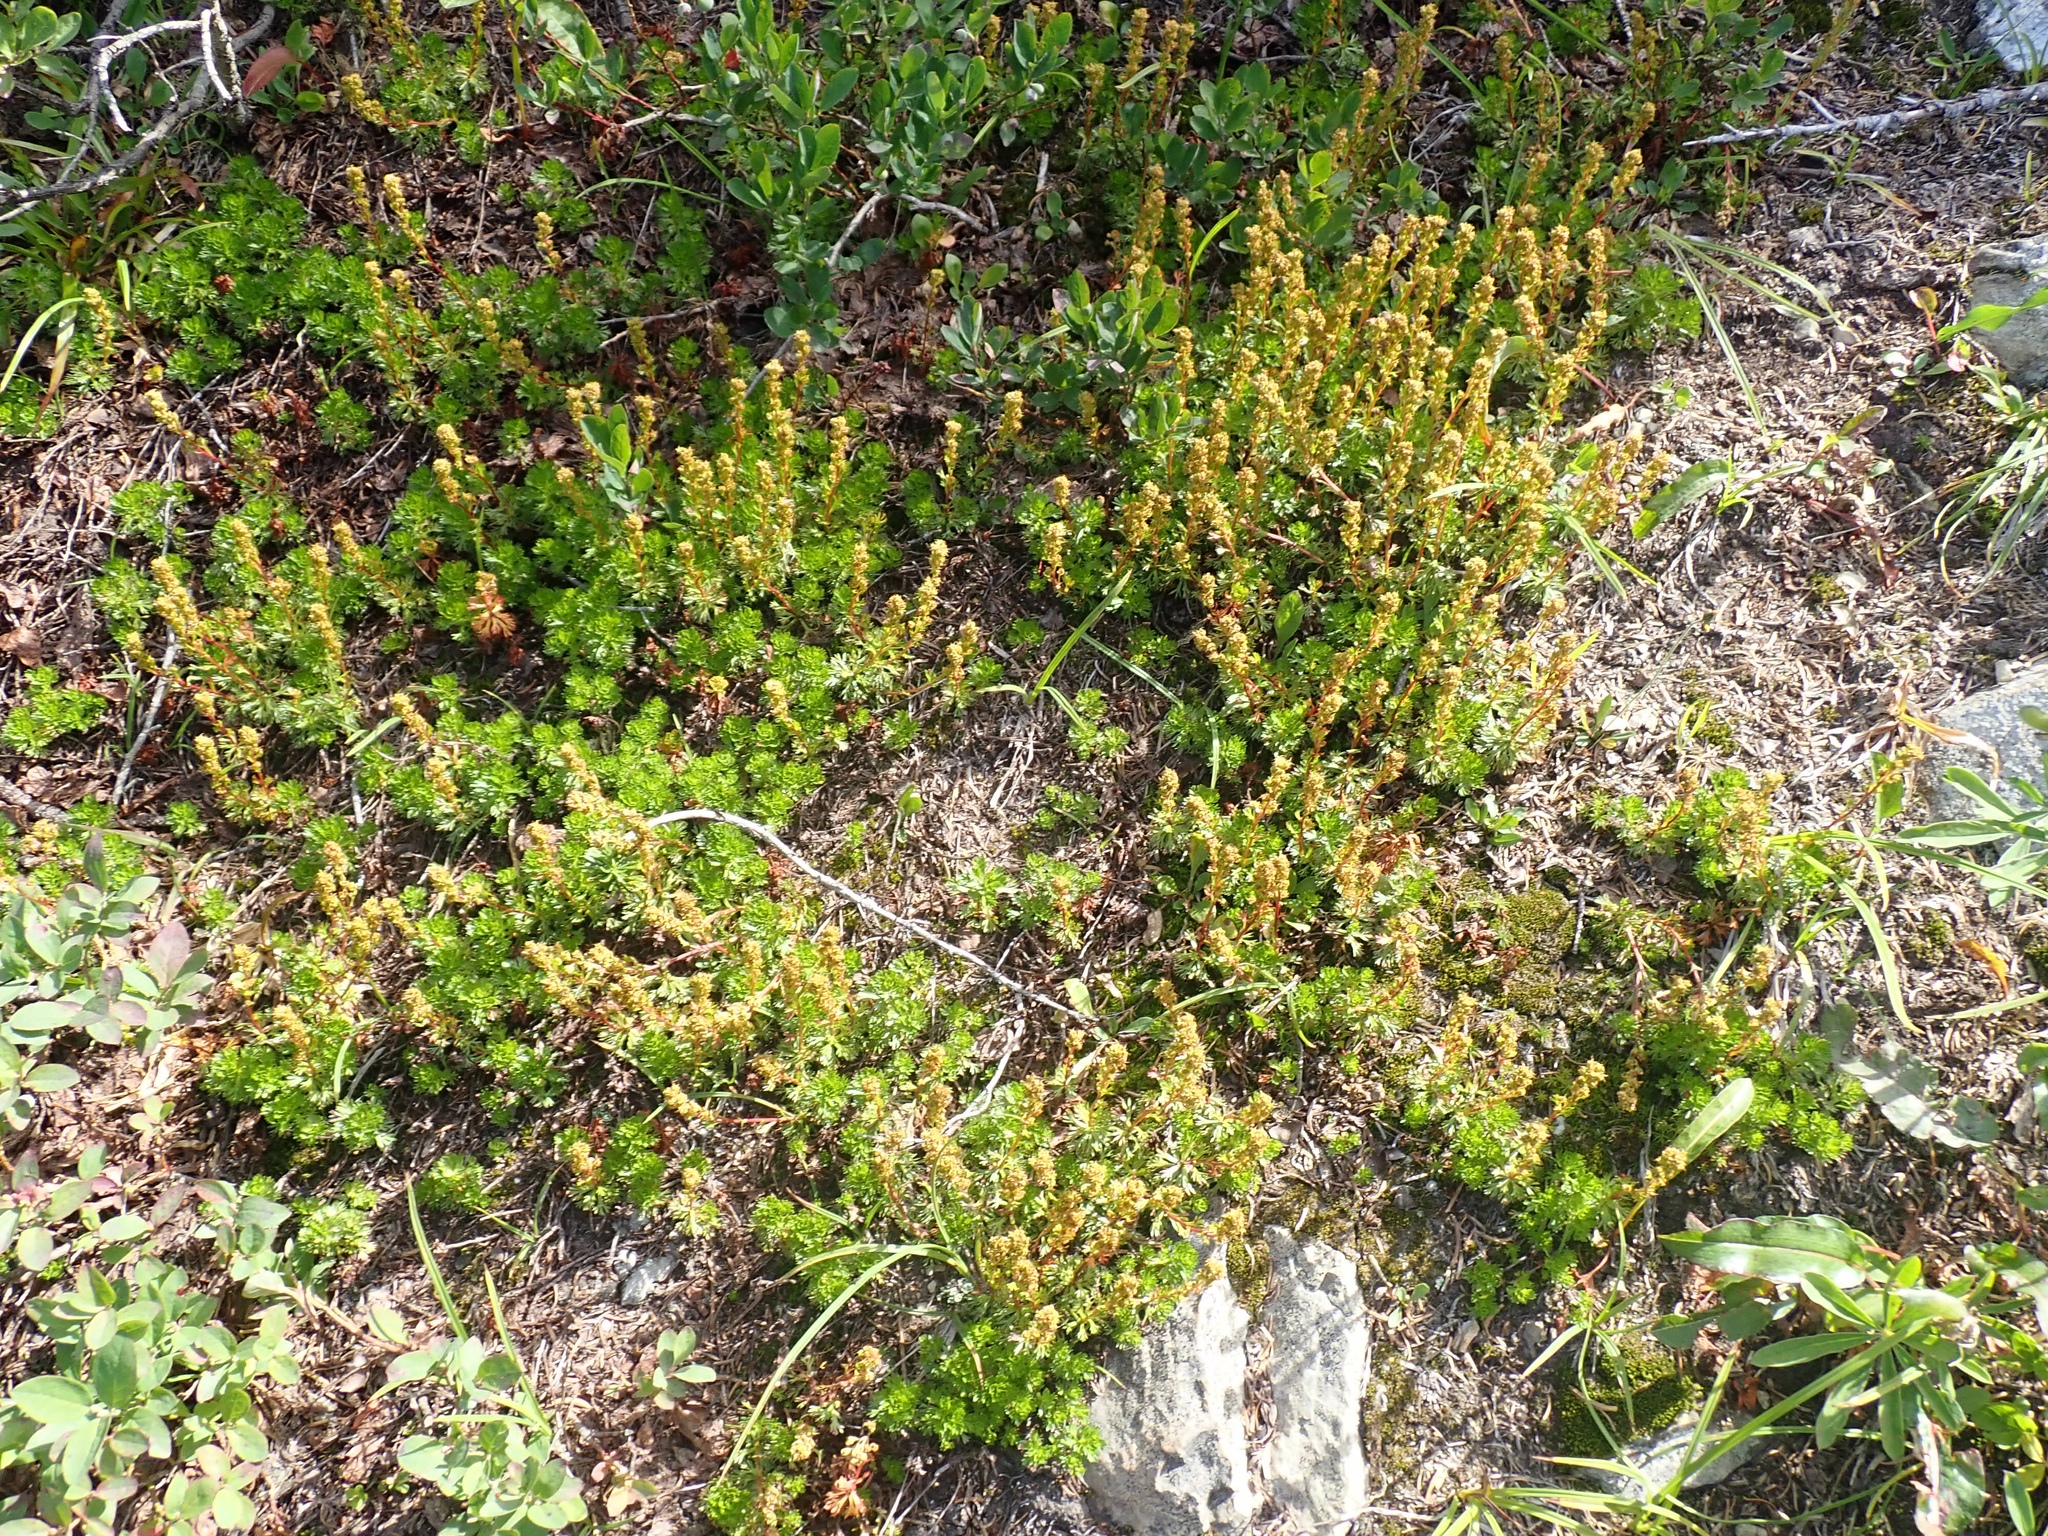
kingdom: Plantae
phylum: Tracheophyta
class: Magnoliopsida
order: Rosales
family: Rosaceae
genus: Luetkea
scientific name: Luetkea pectinata
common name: Partridgefoot
